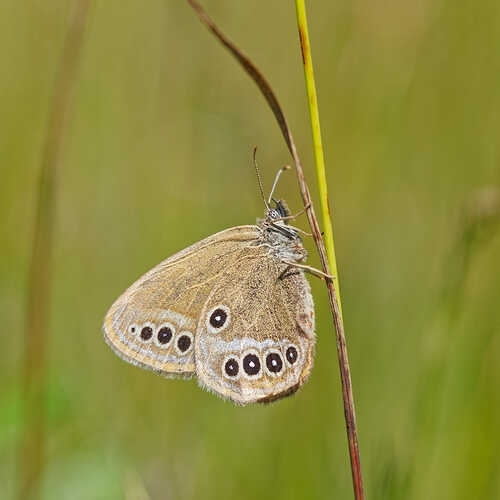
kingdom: Animalia
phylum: Arthropoda
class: Insecta
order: Lepidoptera
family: Nymphalidae
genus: Coenonympha
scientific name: Coenonympha oedippus
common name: False ringlet
